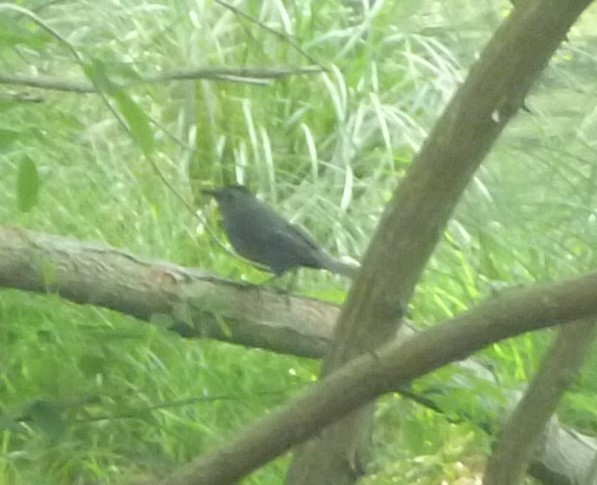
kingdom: Animalia
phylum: Chordata
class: Aves
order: Passeriformes
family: Mimidae
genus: Dumetella
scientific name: Dumetella carolinensis
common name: Gray catbird
